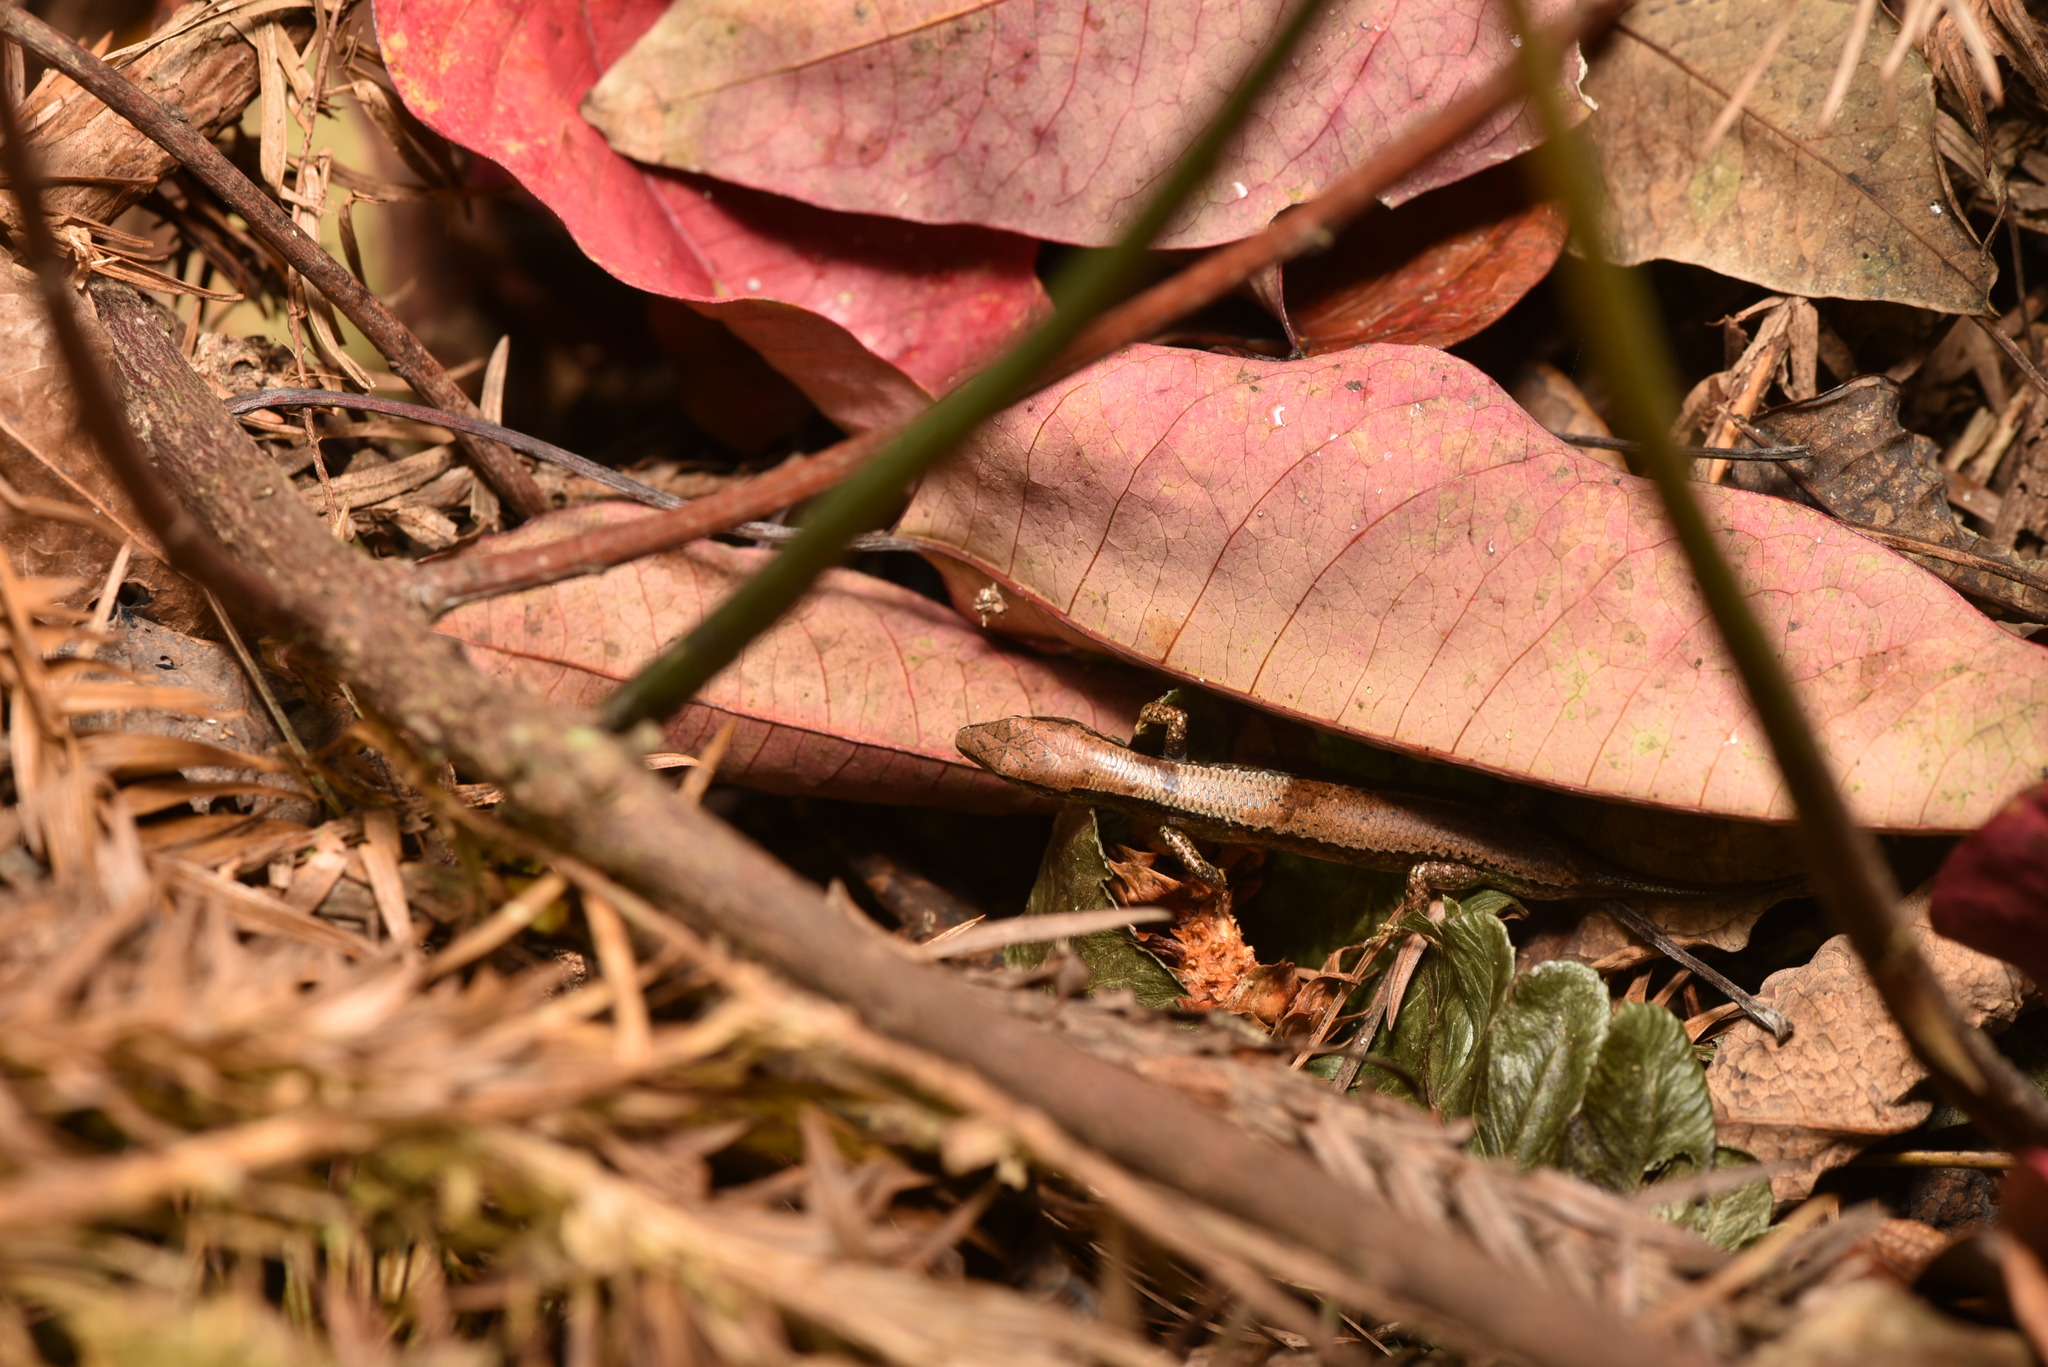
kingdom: Animalia
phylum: Chordata
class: Squamata
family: Scincidae
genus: Scincella
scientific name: Scincella formosensis
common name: Van denburgh's ground skink
